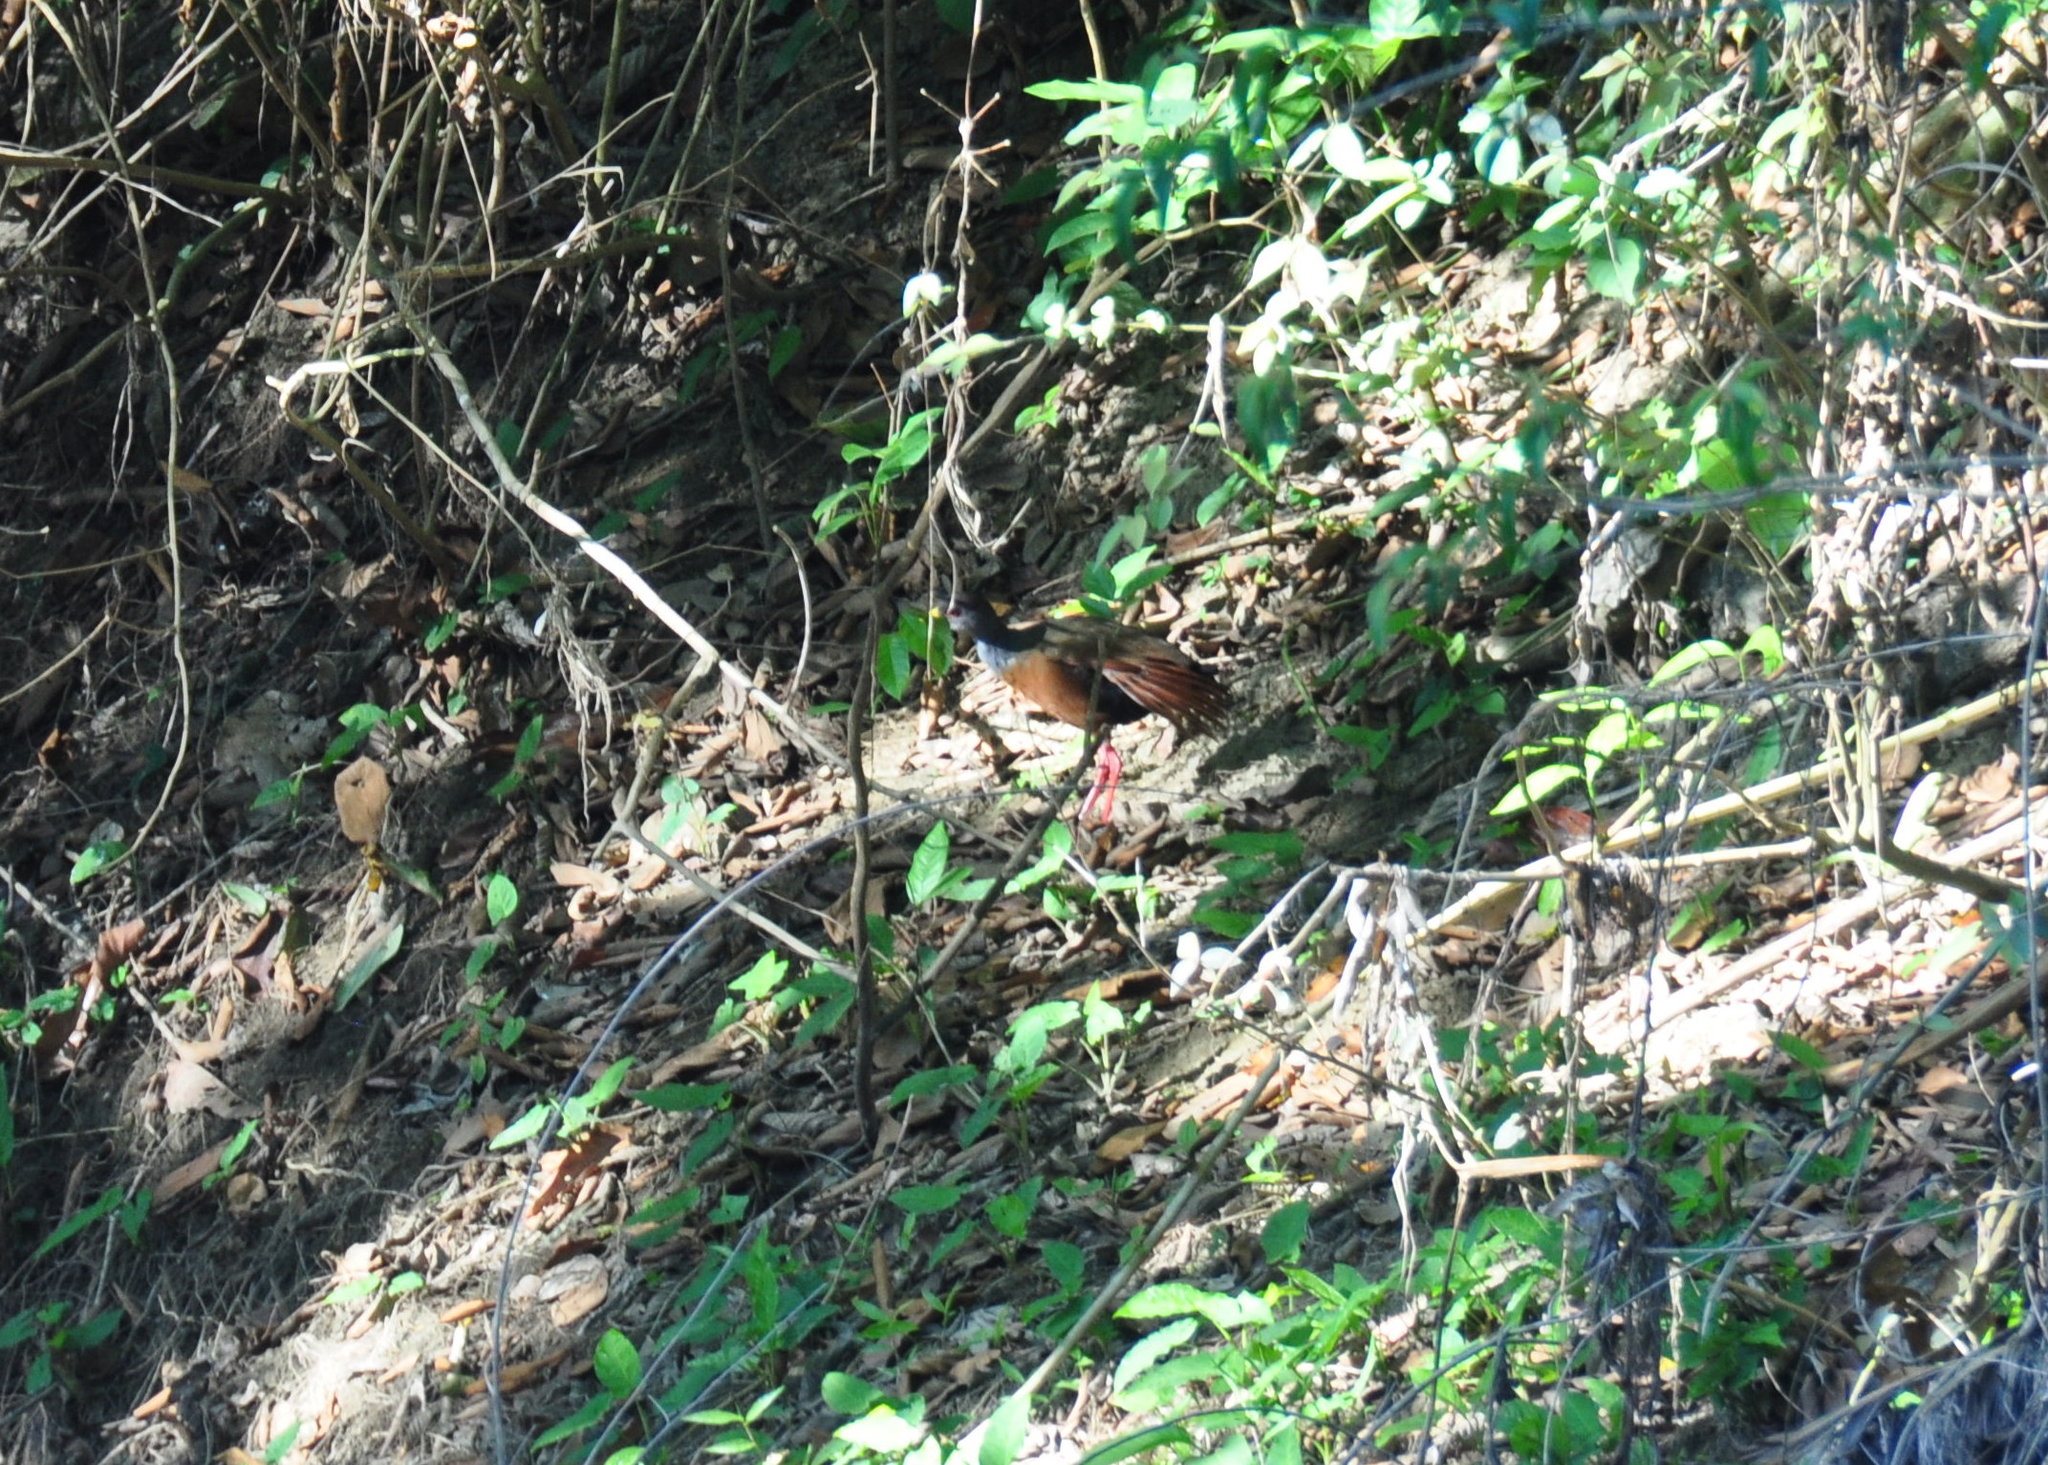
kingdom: Animalia
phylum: Chordata
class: Aves
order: Gruiformes
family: Rallidae
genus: Aramides
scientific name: Aramides cajanea
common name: Gray-necked wood-rail
